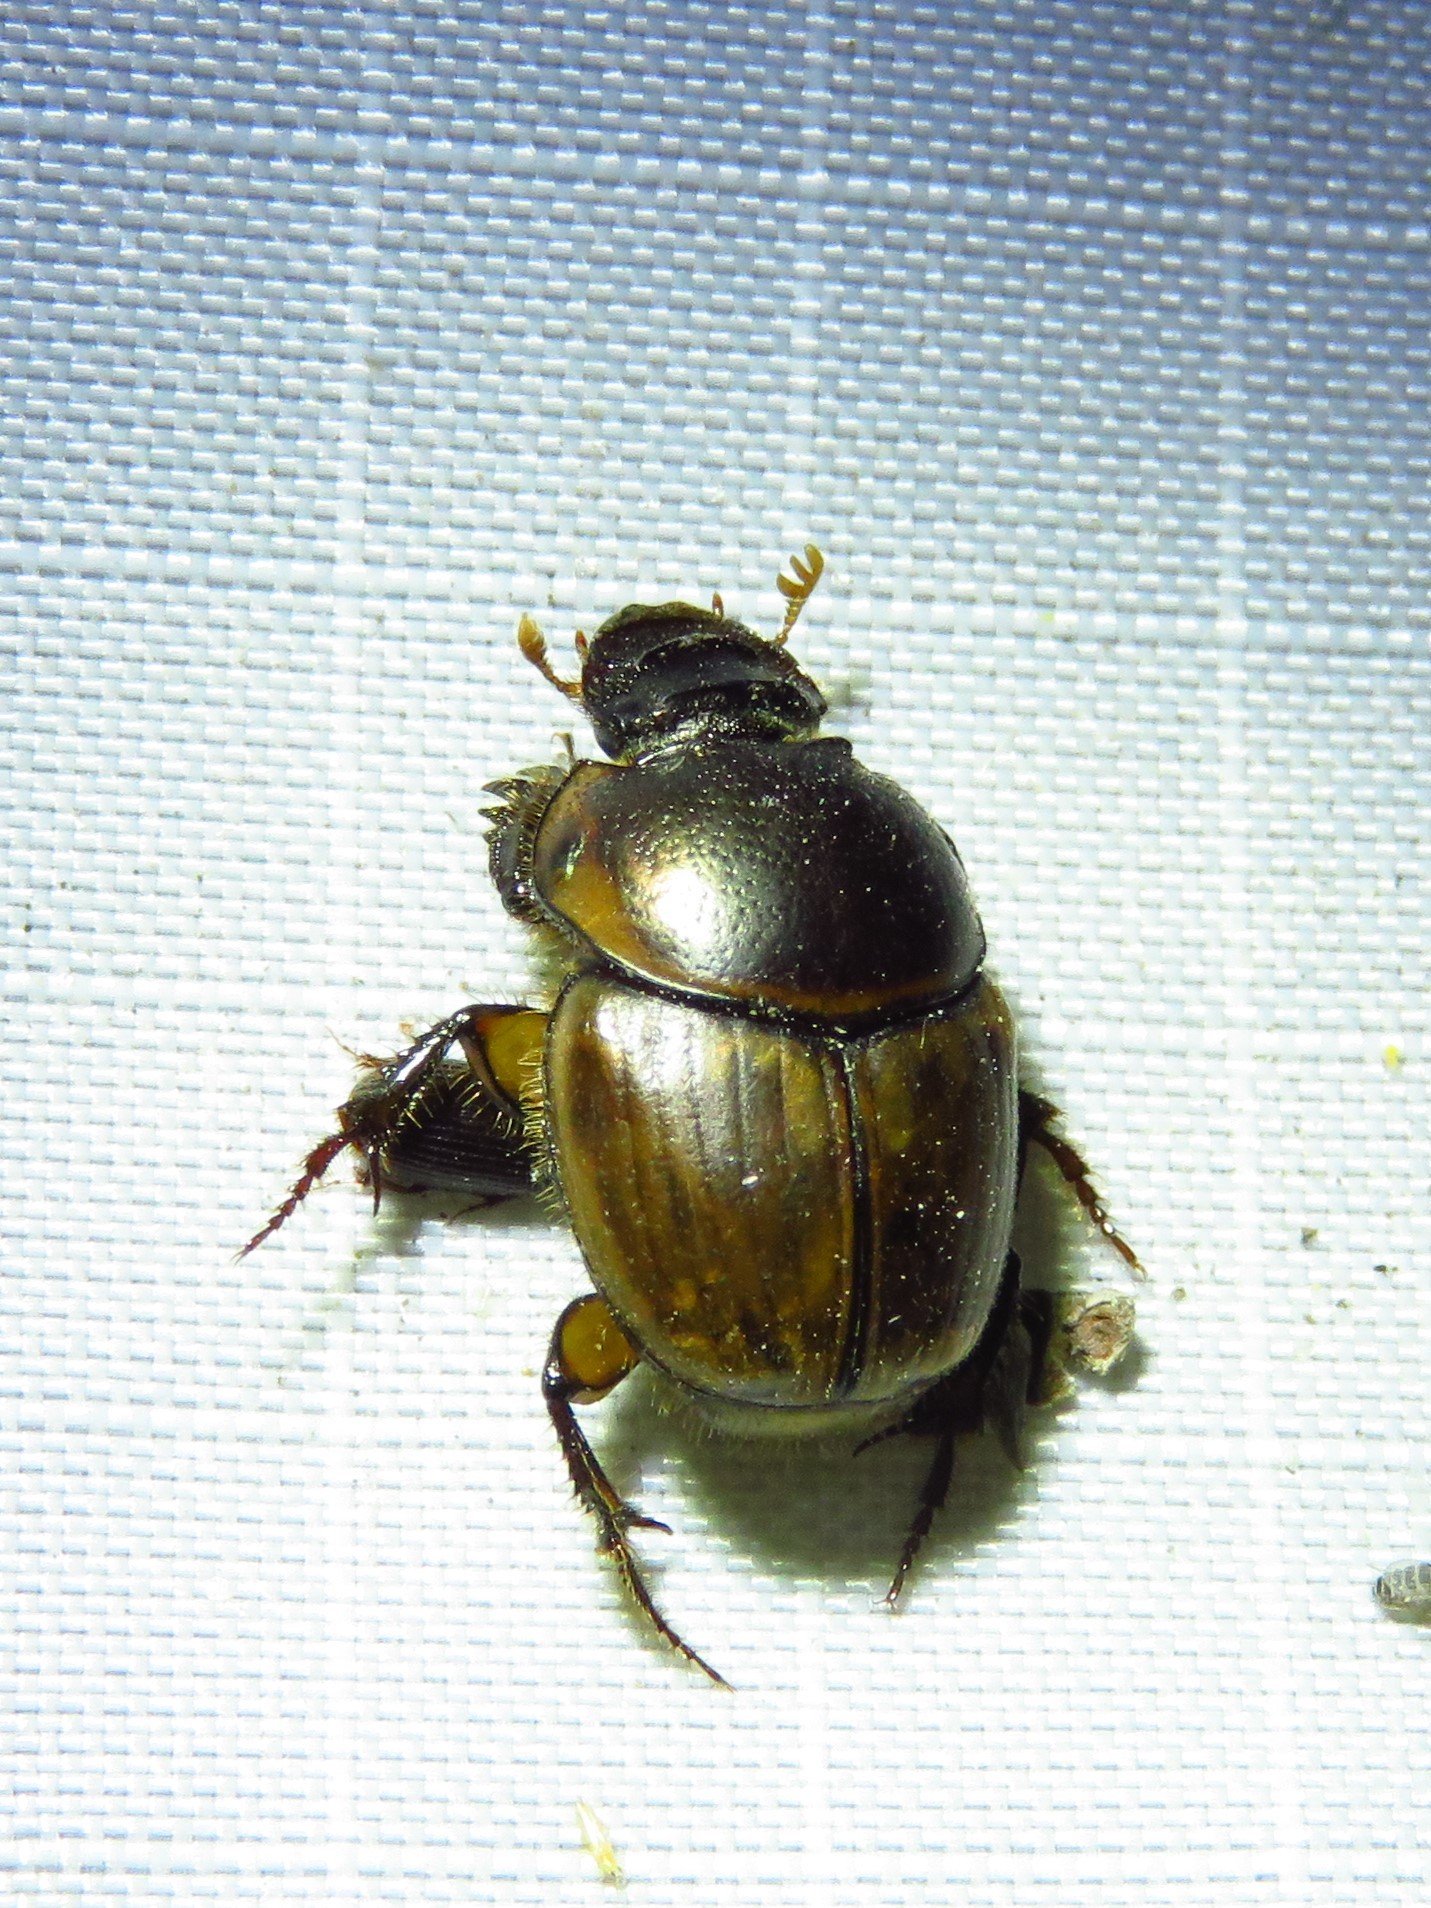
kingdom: Animalia
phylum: Arthropoda
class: Insecta
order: Coleoptera
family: Scarabaeidae
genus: Digitonthophagus
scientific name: Digitonthophagus gazella
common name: Brown dung beetle
